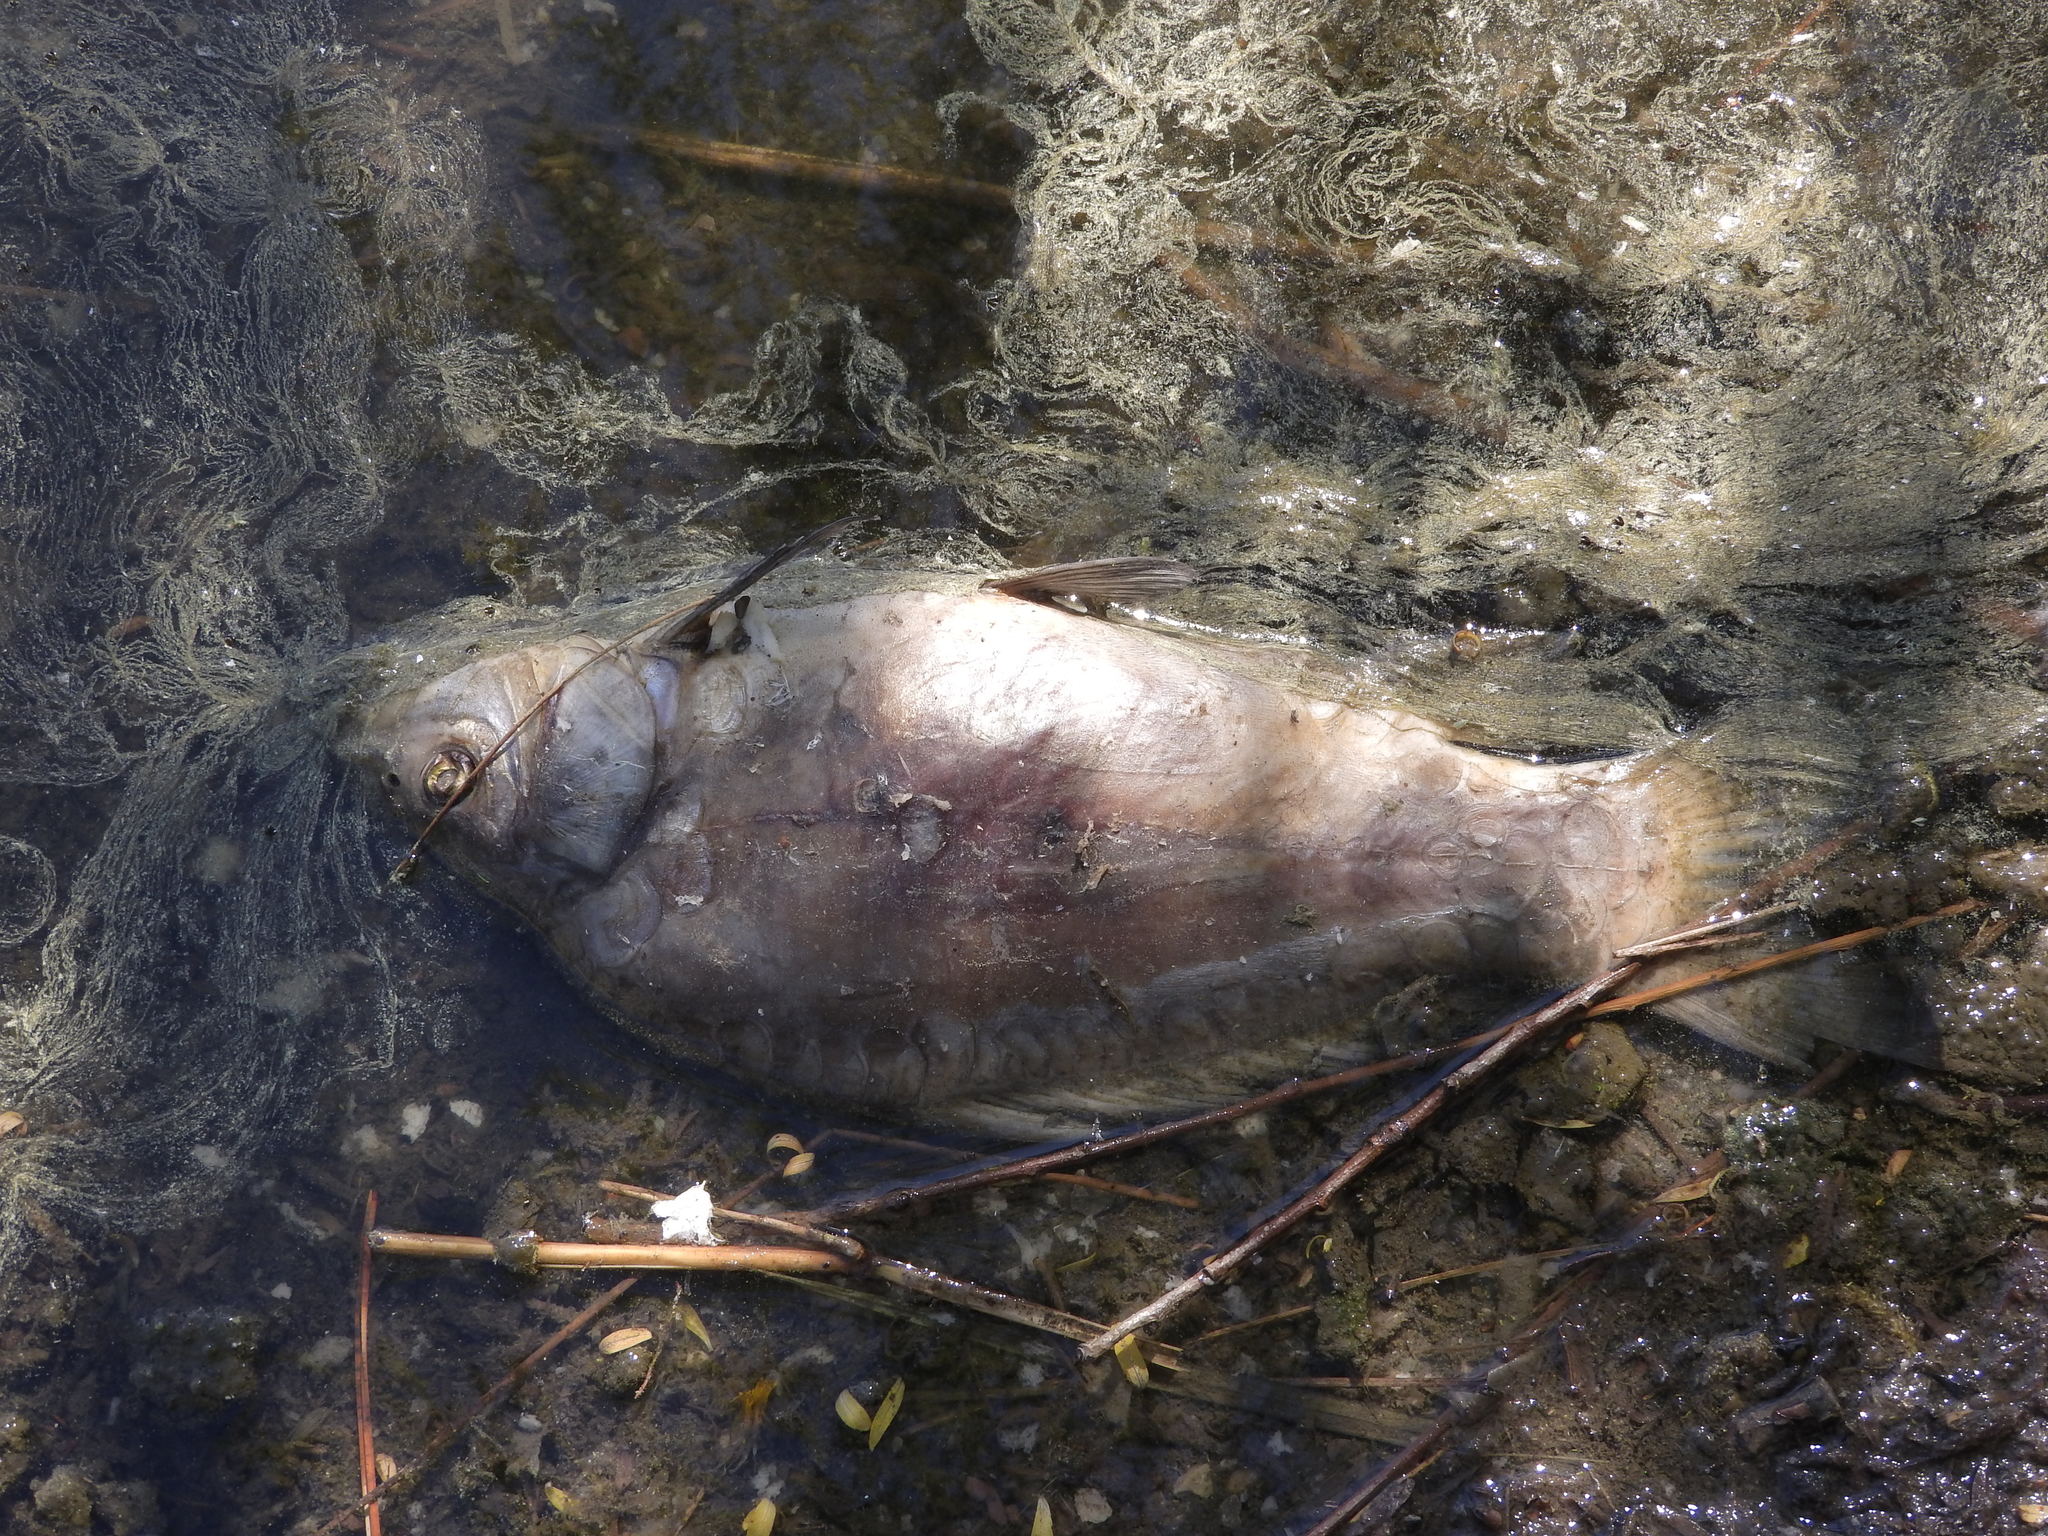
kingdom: Animalia
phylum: Chordata
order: Cypriniformes
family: Cyprinidae
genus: Cyprinus
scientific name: Cyprinus carpio
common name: Common carp
